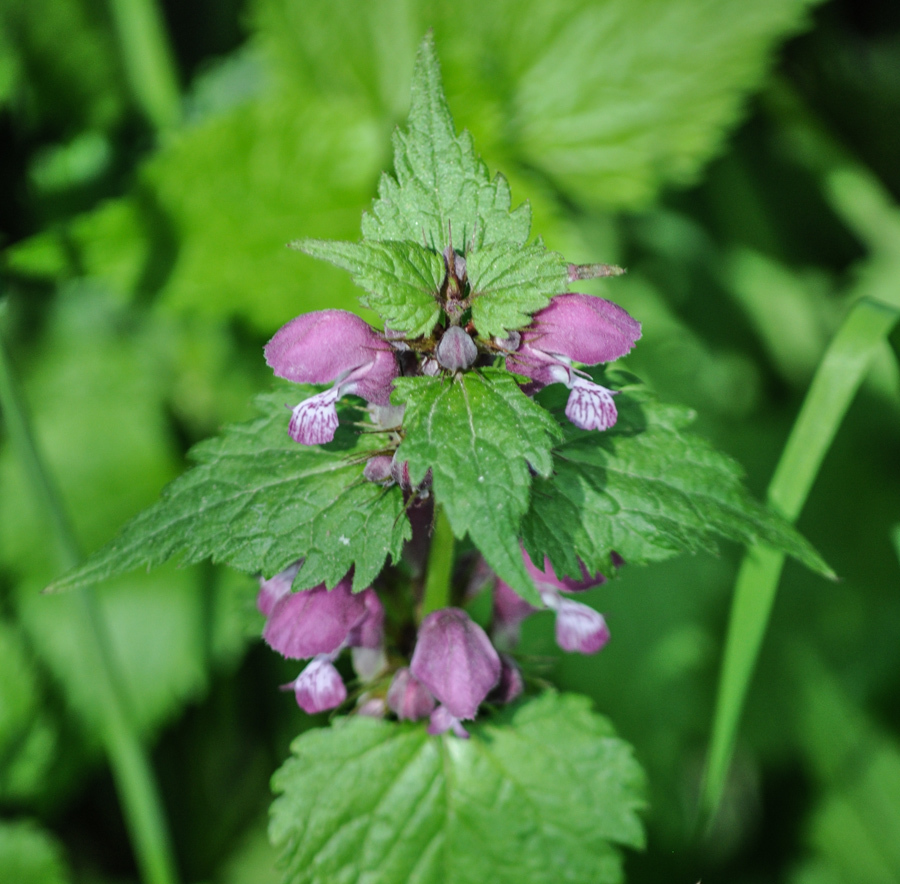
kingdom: Plantae
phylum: Tracheophyta
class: Magnoliopsida
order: Lamiales
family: Lamiaceae
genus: Lamium
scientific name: Lamium maculatum
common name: Spotted dead-nettle
